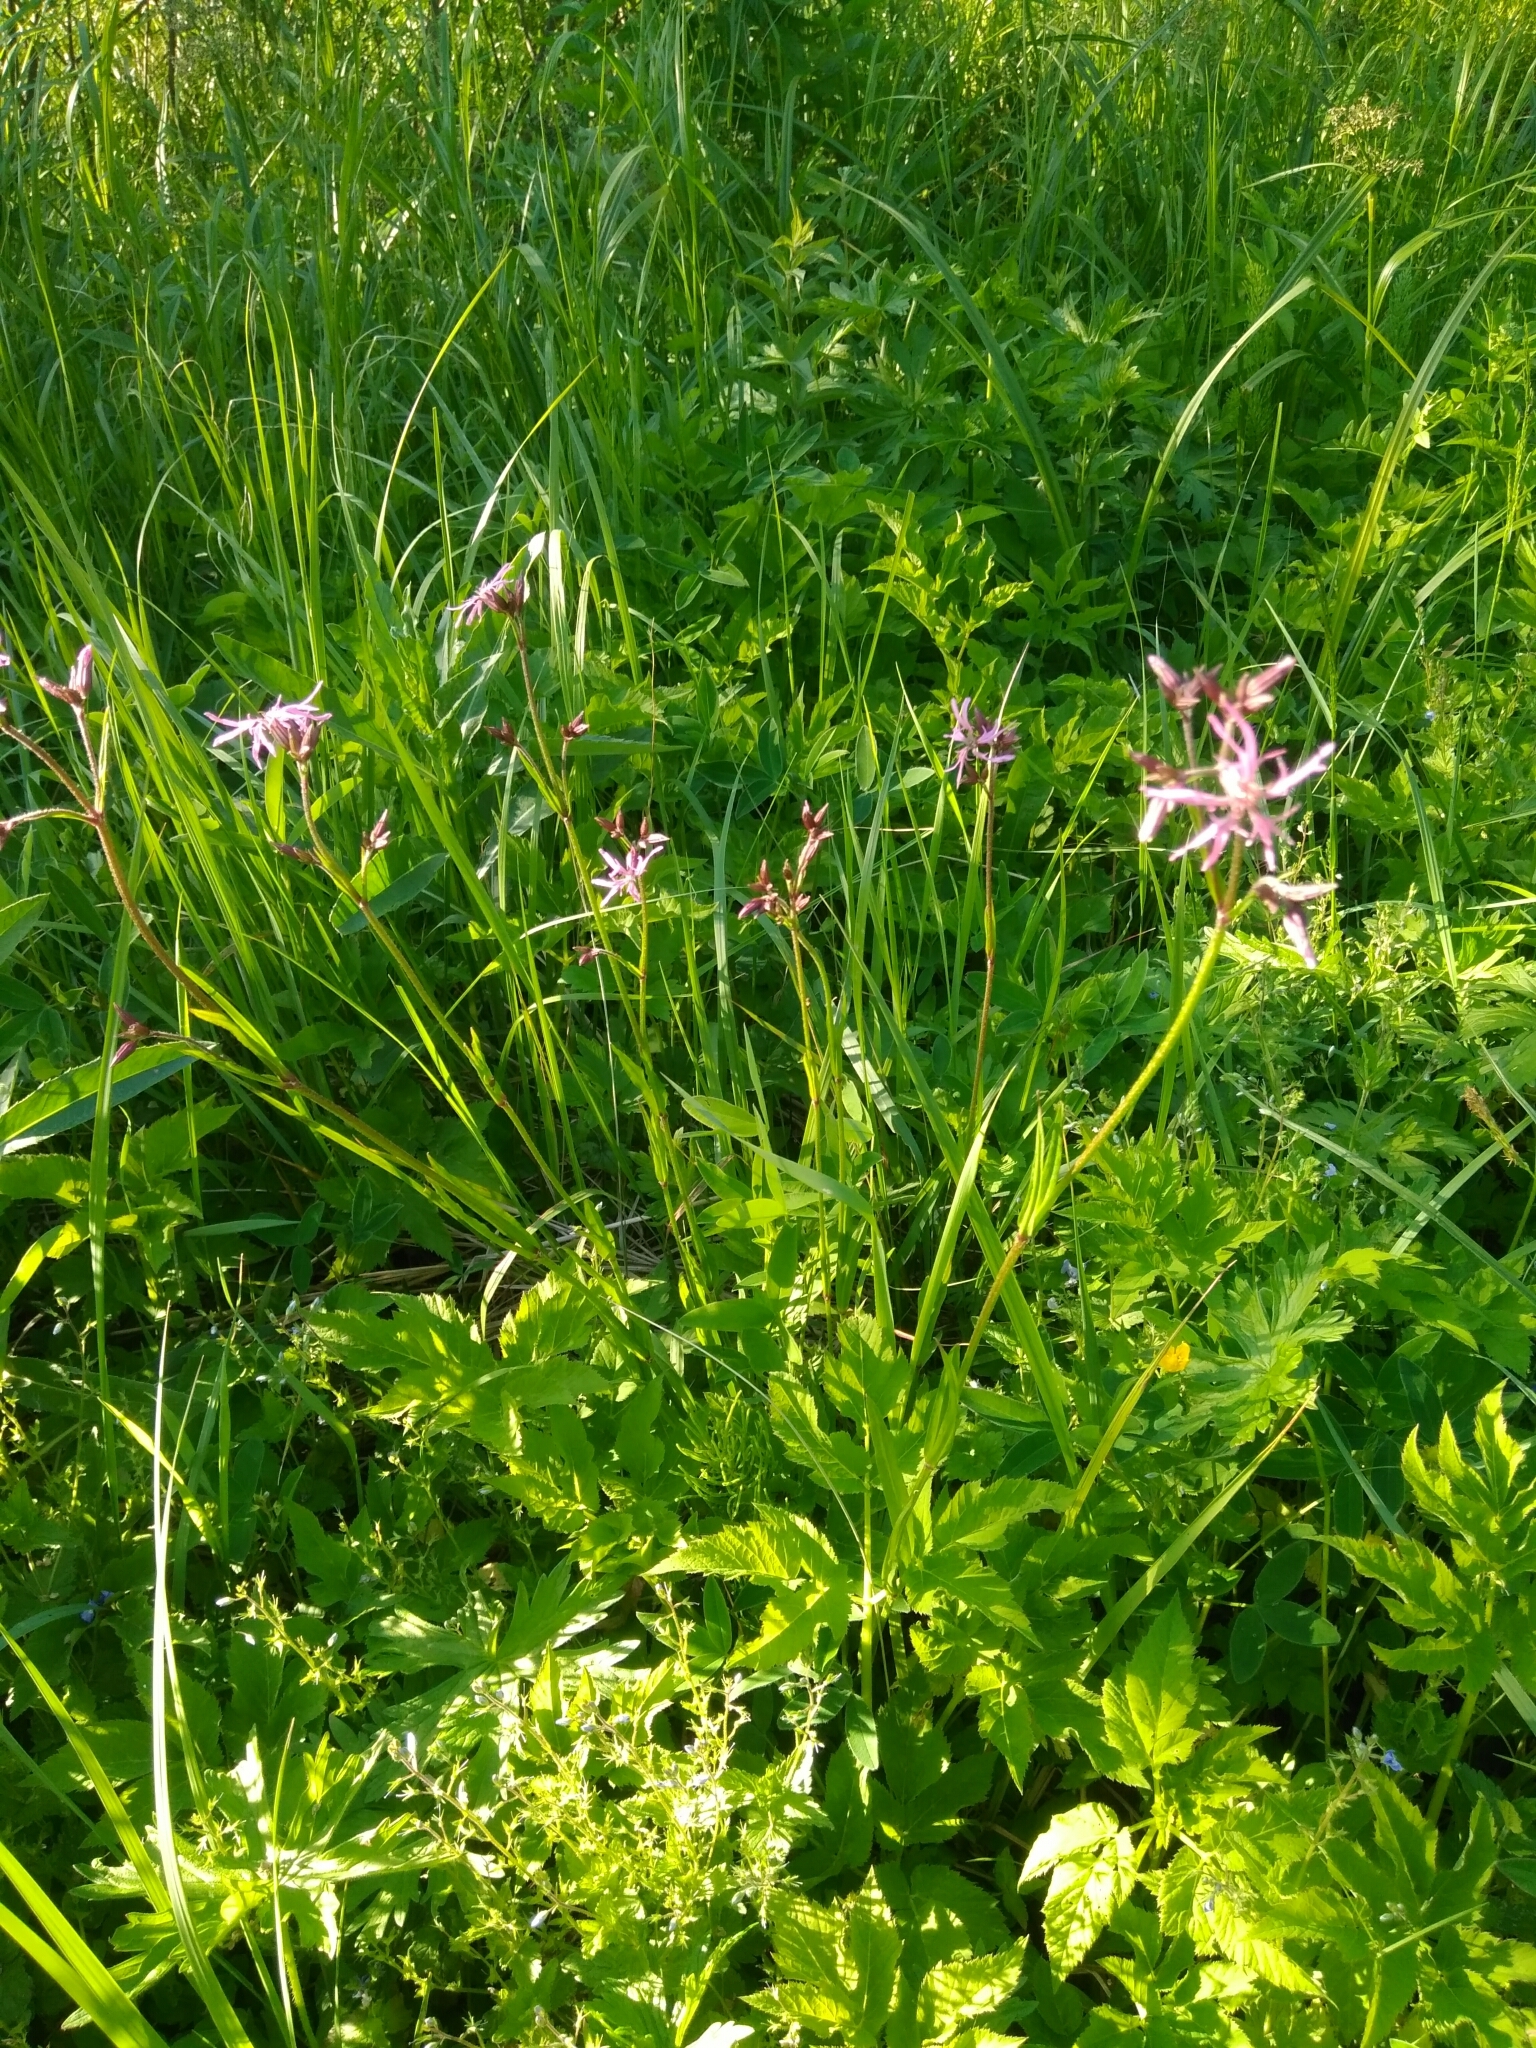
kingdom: Plantae
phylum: Tracheophyta
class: Magnoliopsida
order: Caryophyllales
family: Caryophyllaceae
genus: Silene
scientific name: Silene flos-cuculi
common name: Ragged-robin
